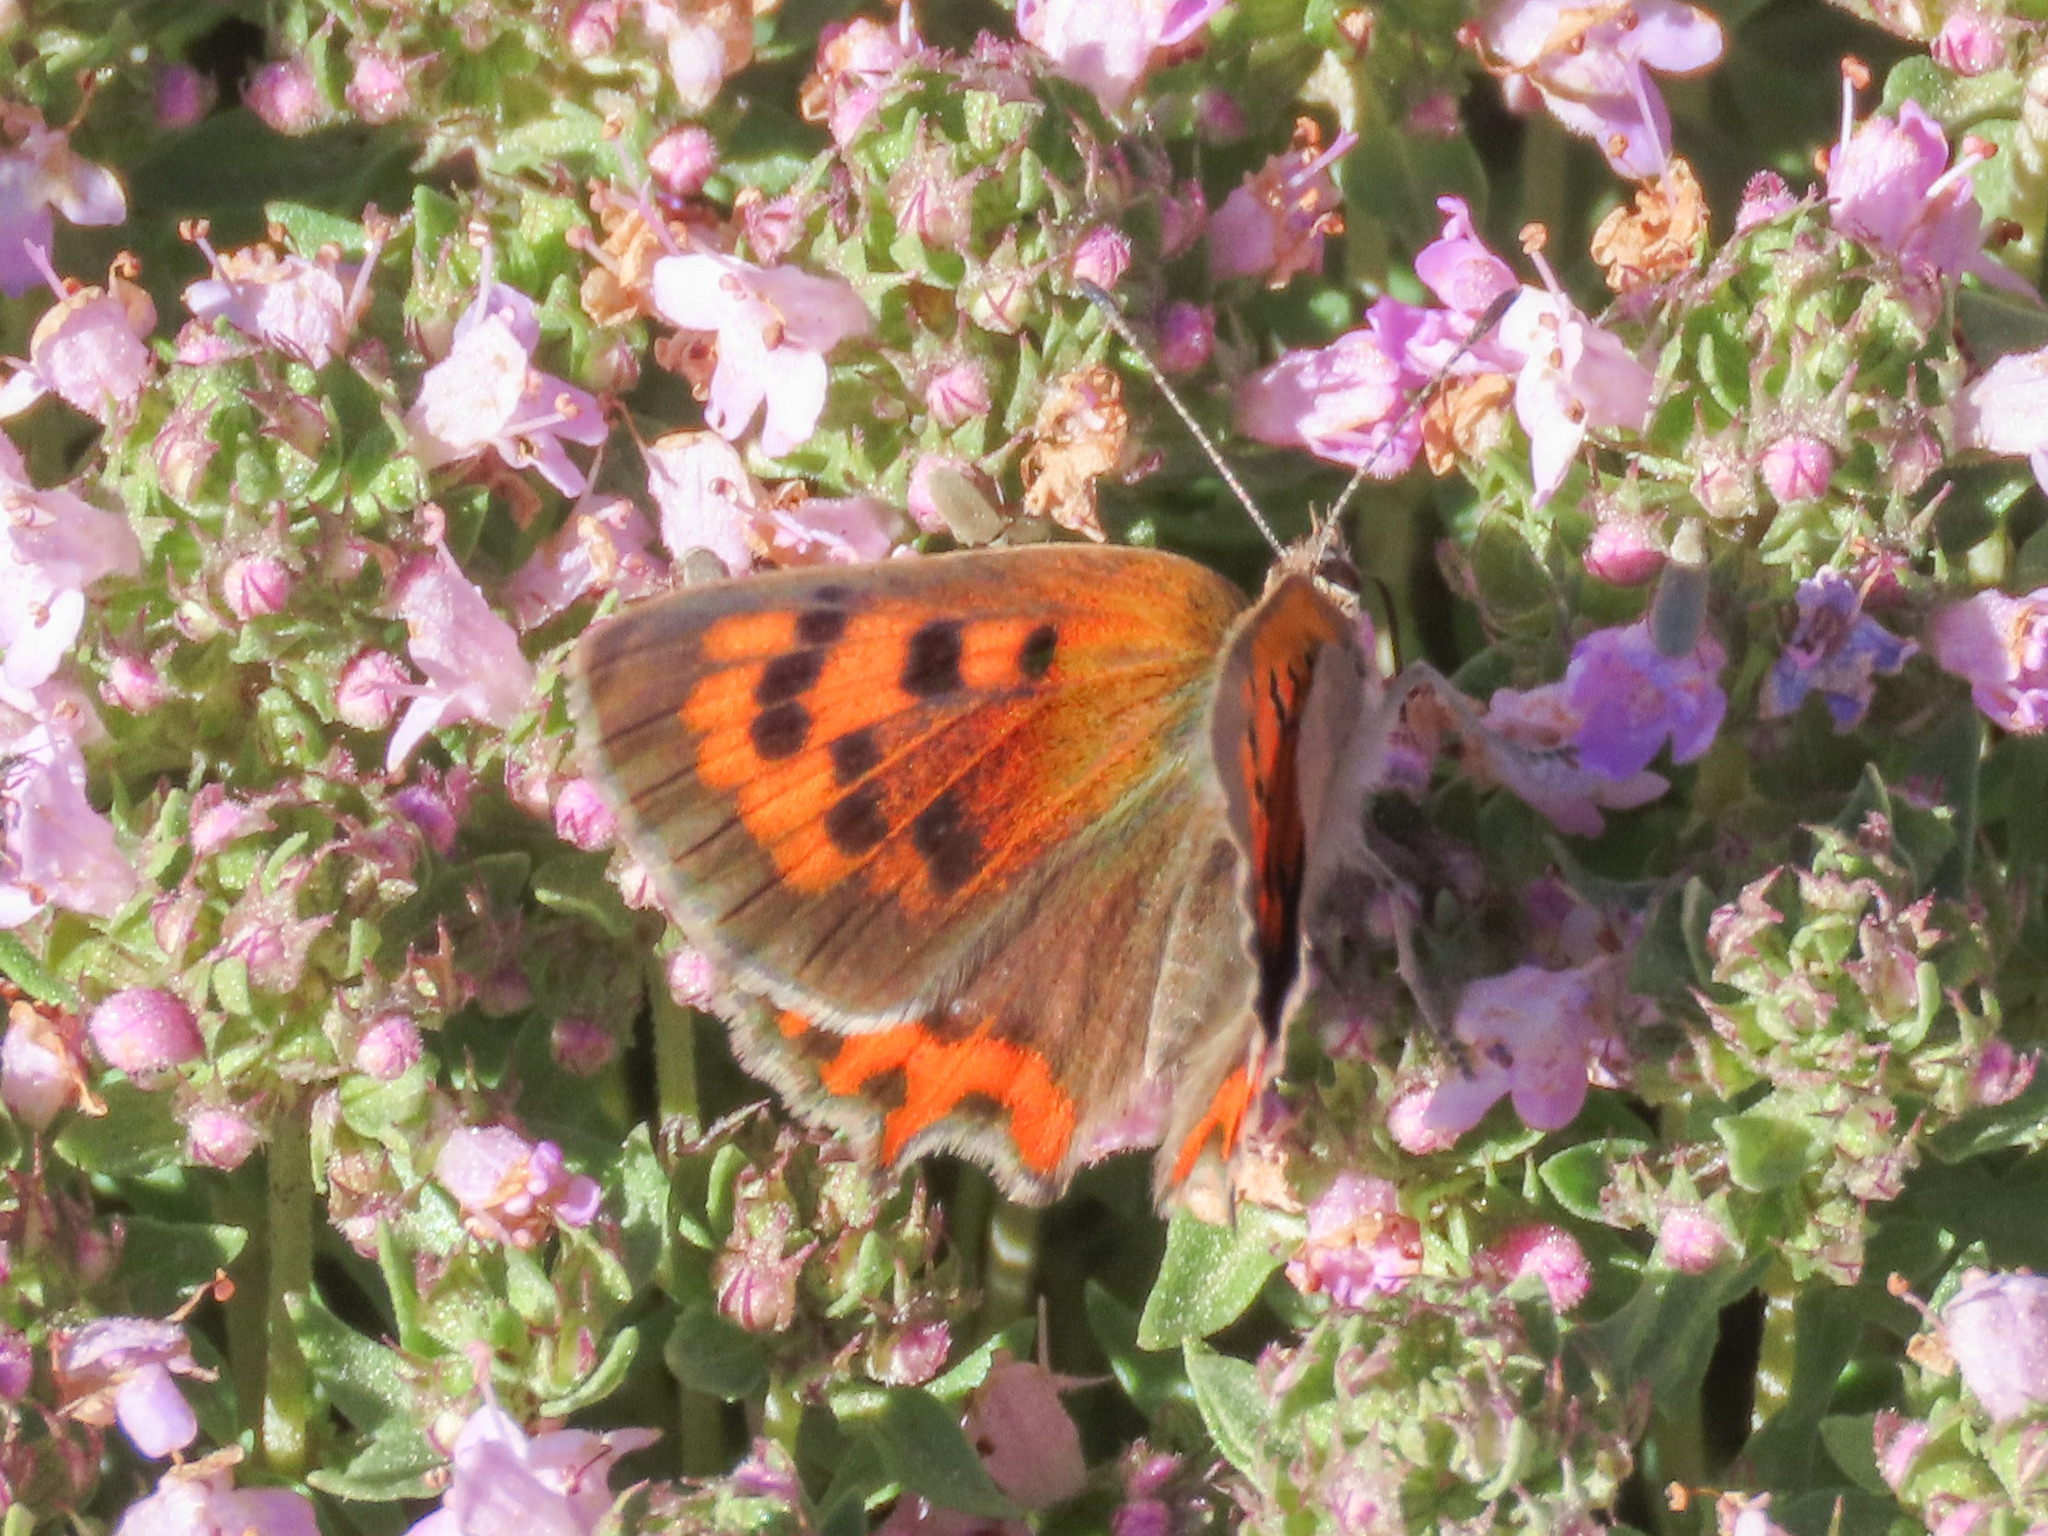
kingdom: Animalia
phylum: Arthropoda
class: Insecta
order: Lepidoptera
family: Lycaenidae
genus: Lycaena
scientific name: Lycaena phlaeas
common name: Small copper
